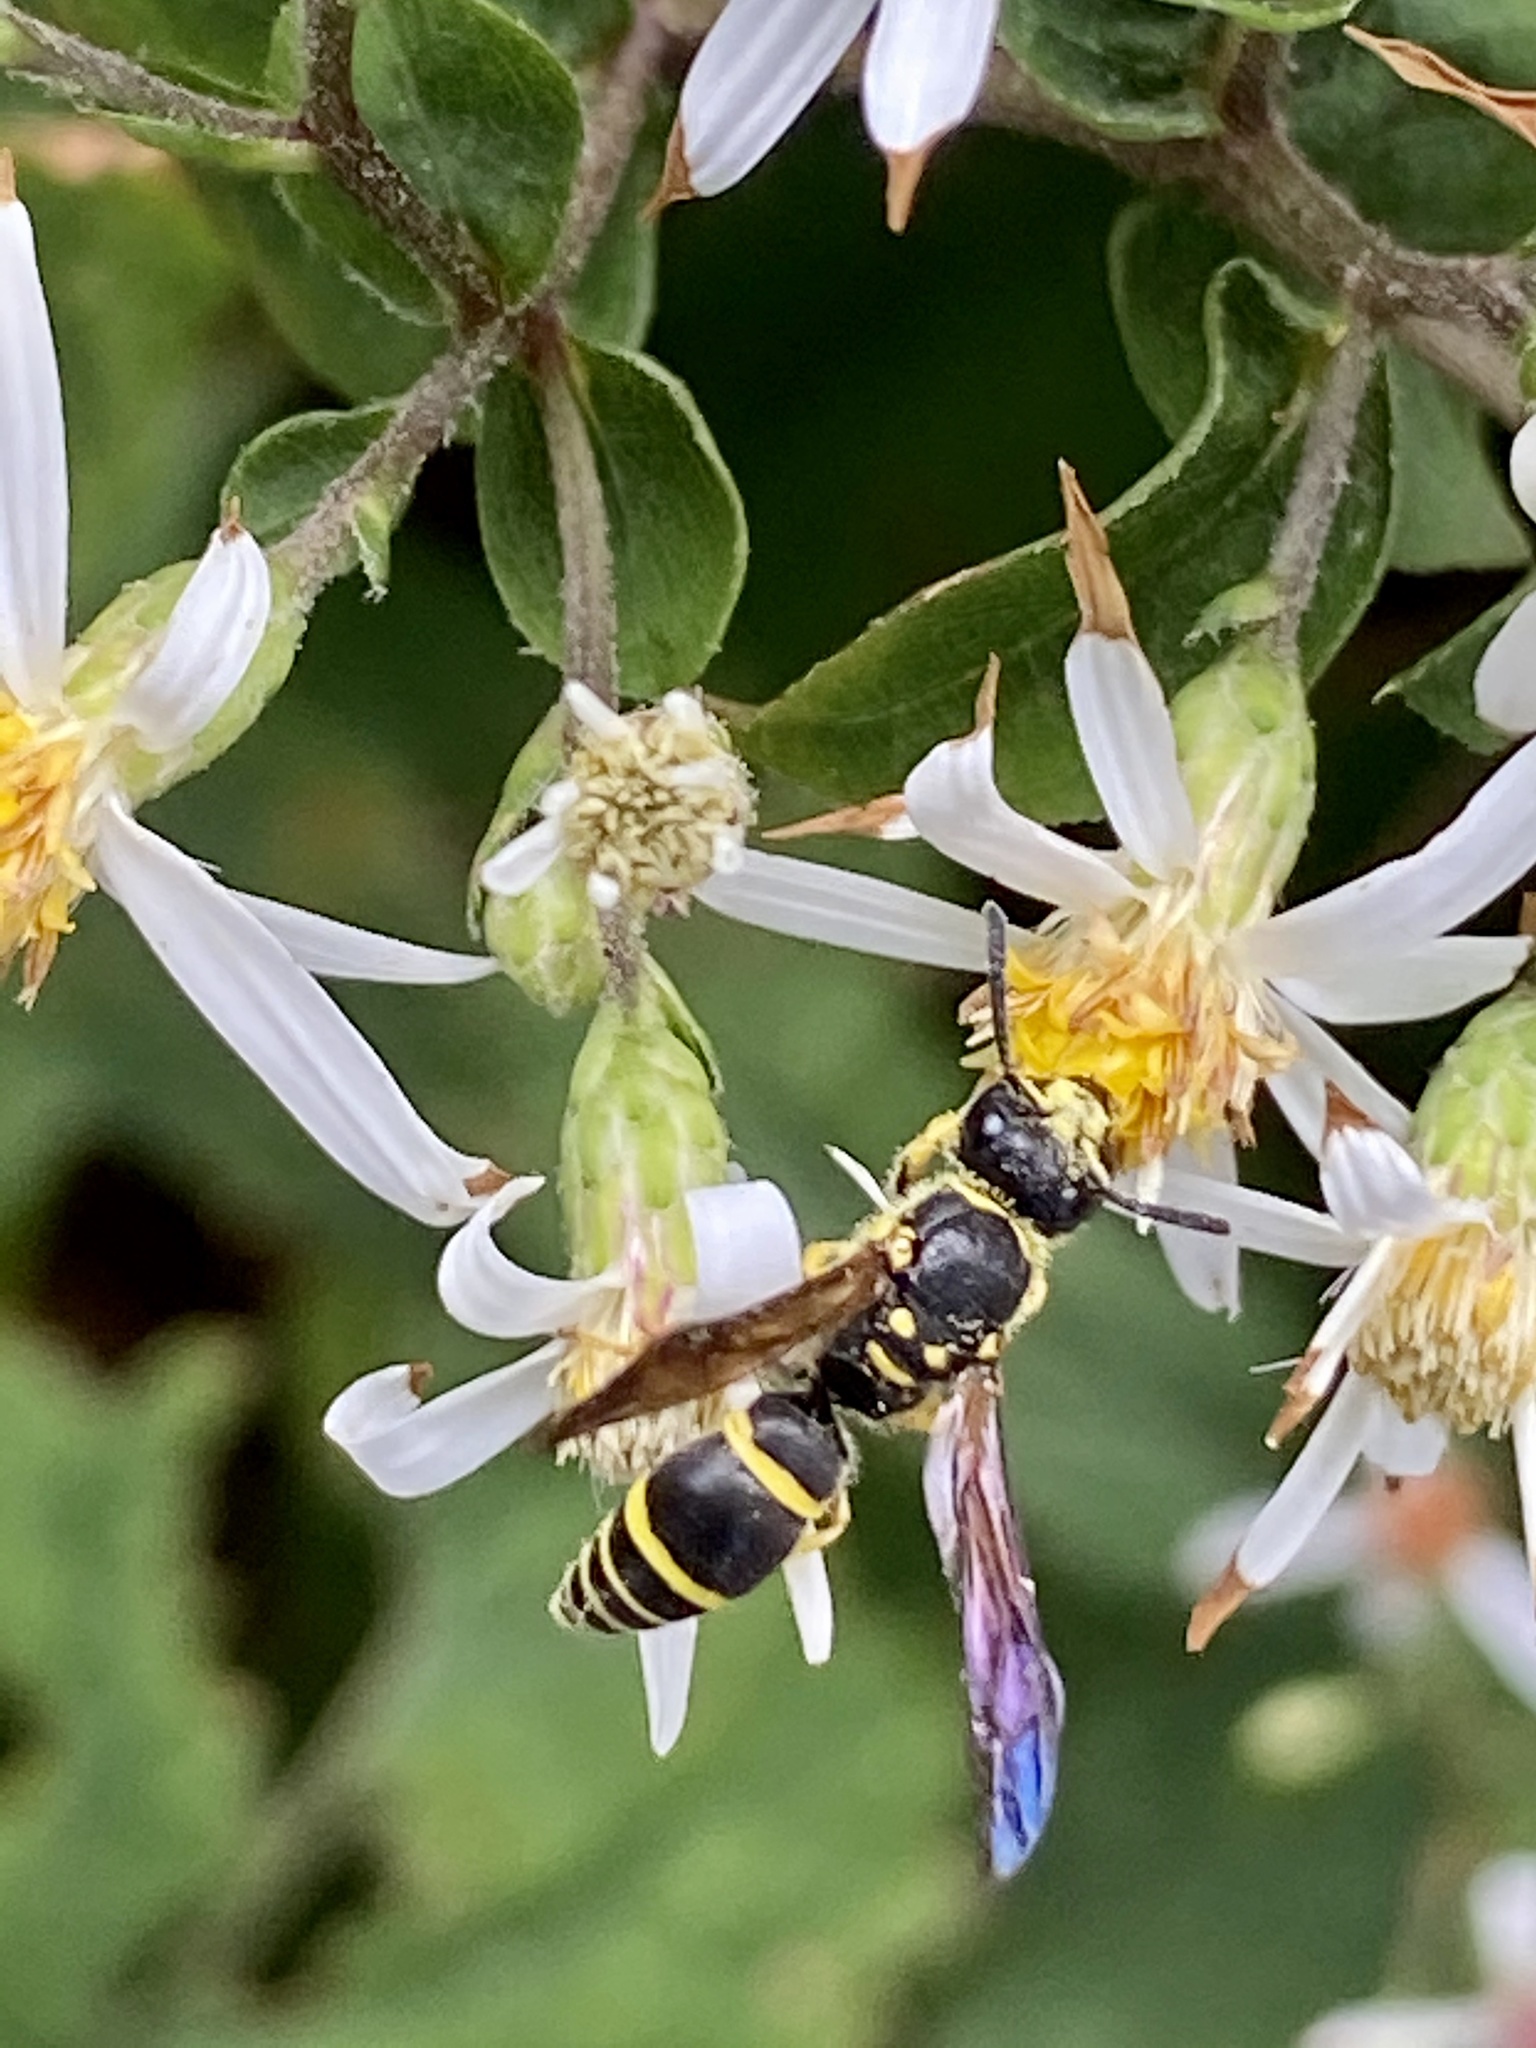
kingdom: Animalia
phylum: Arthropoda
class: Insecta
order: Hymenoptera
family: Vespidae
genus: Ancistrocerus
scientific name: Ancistrocerus adiabatus
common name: Bramble mason wasp
